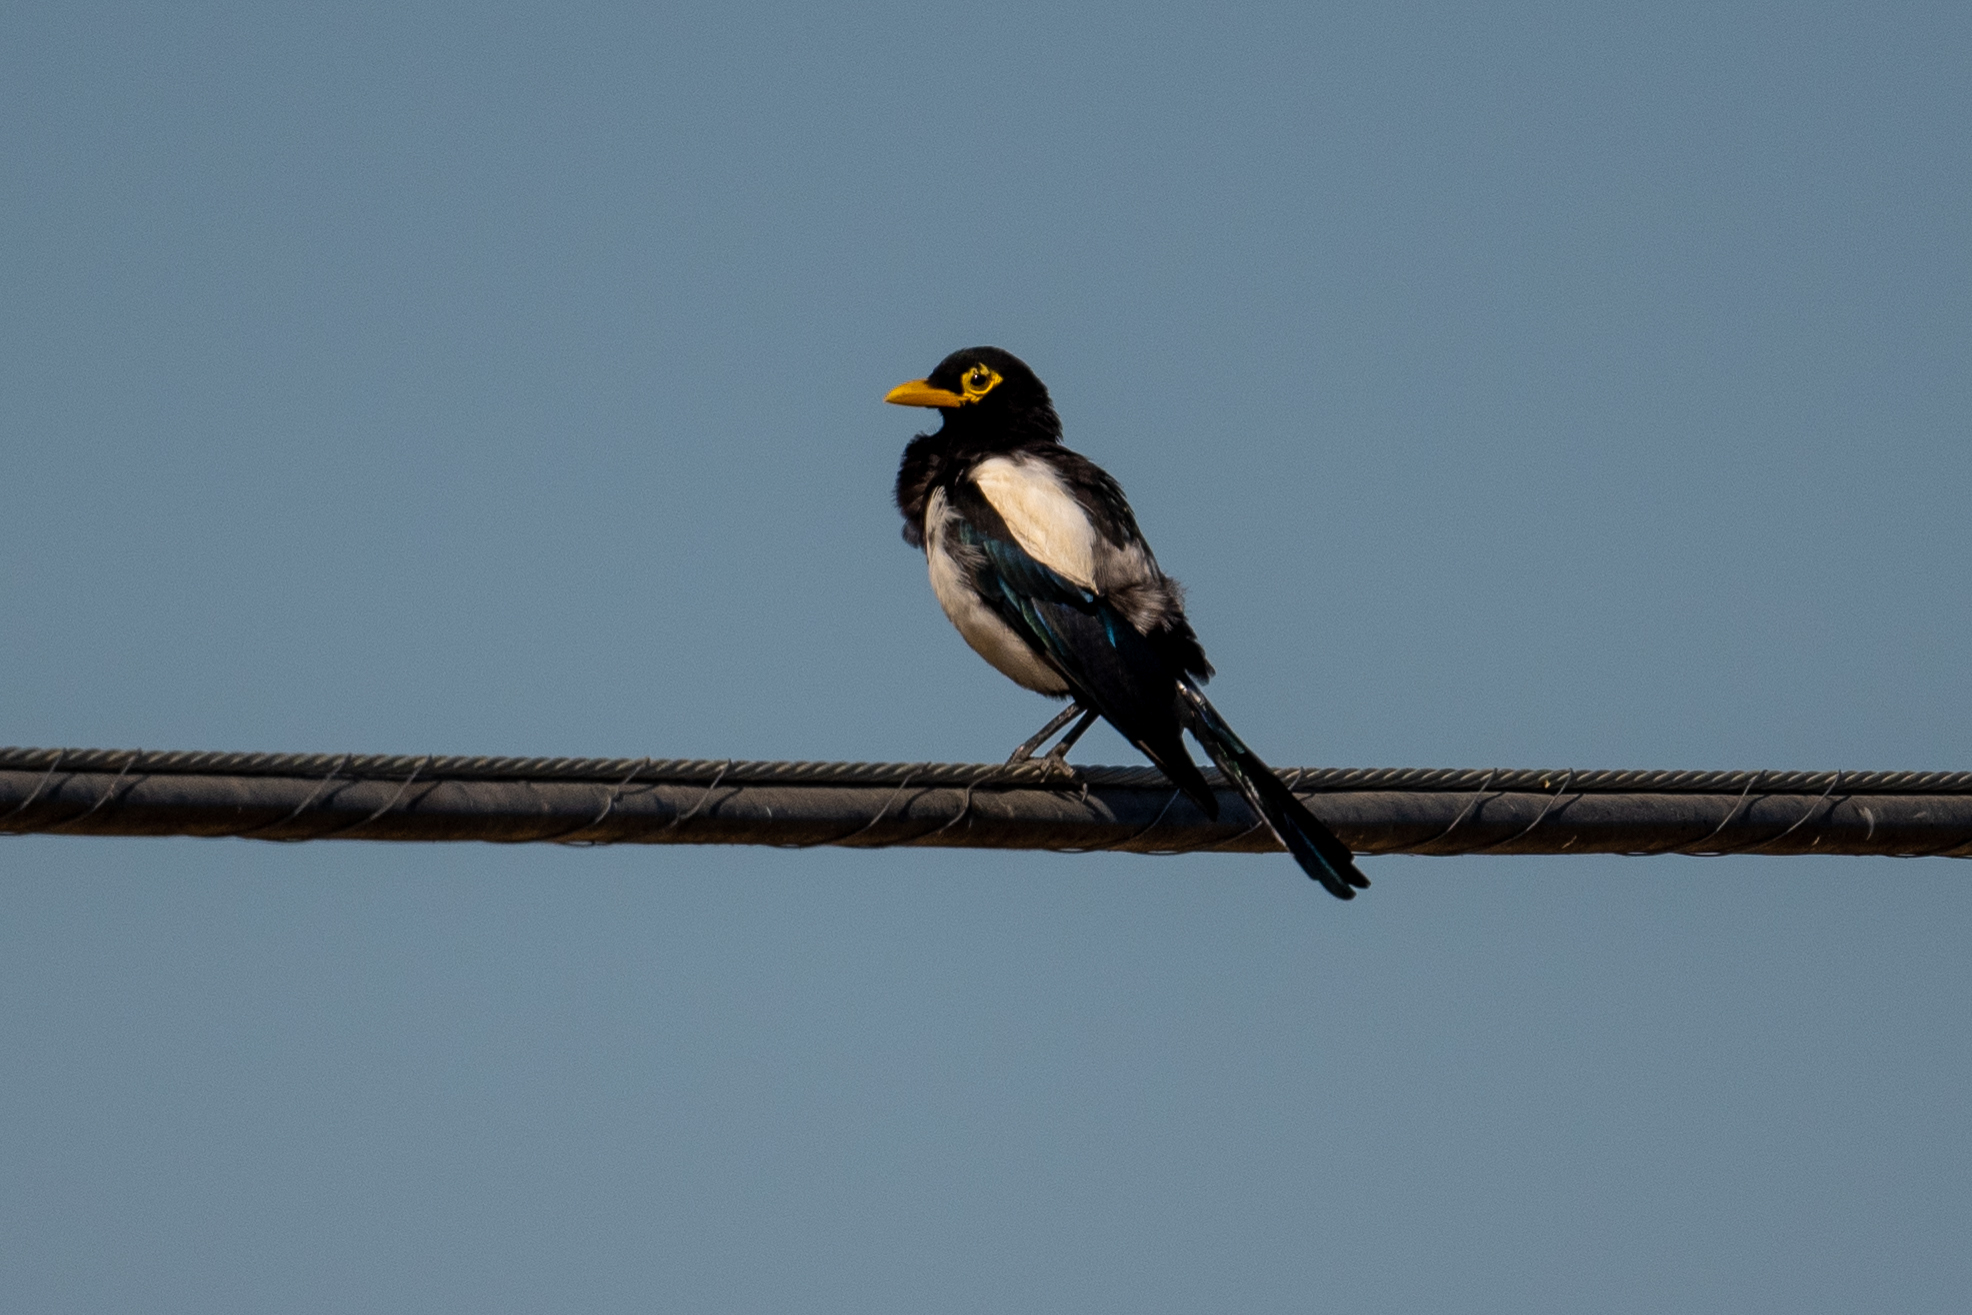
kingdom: Animalia
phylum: Chordata
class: Aves
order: Passeriformes
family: Corvidae
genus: Pica
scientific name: Pica nuttalli
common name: Yellow-billed magpie
